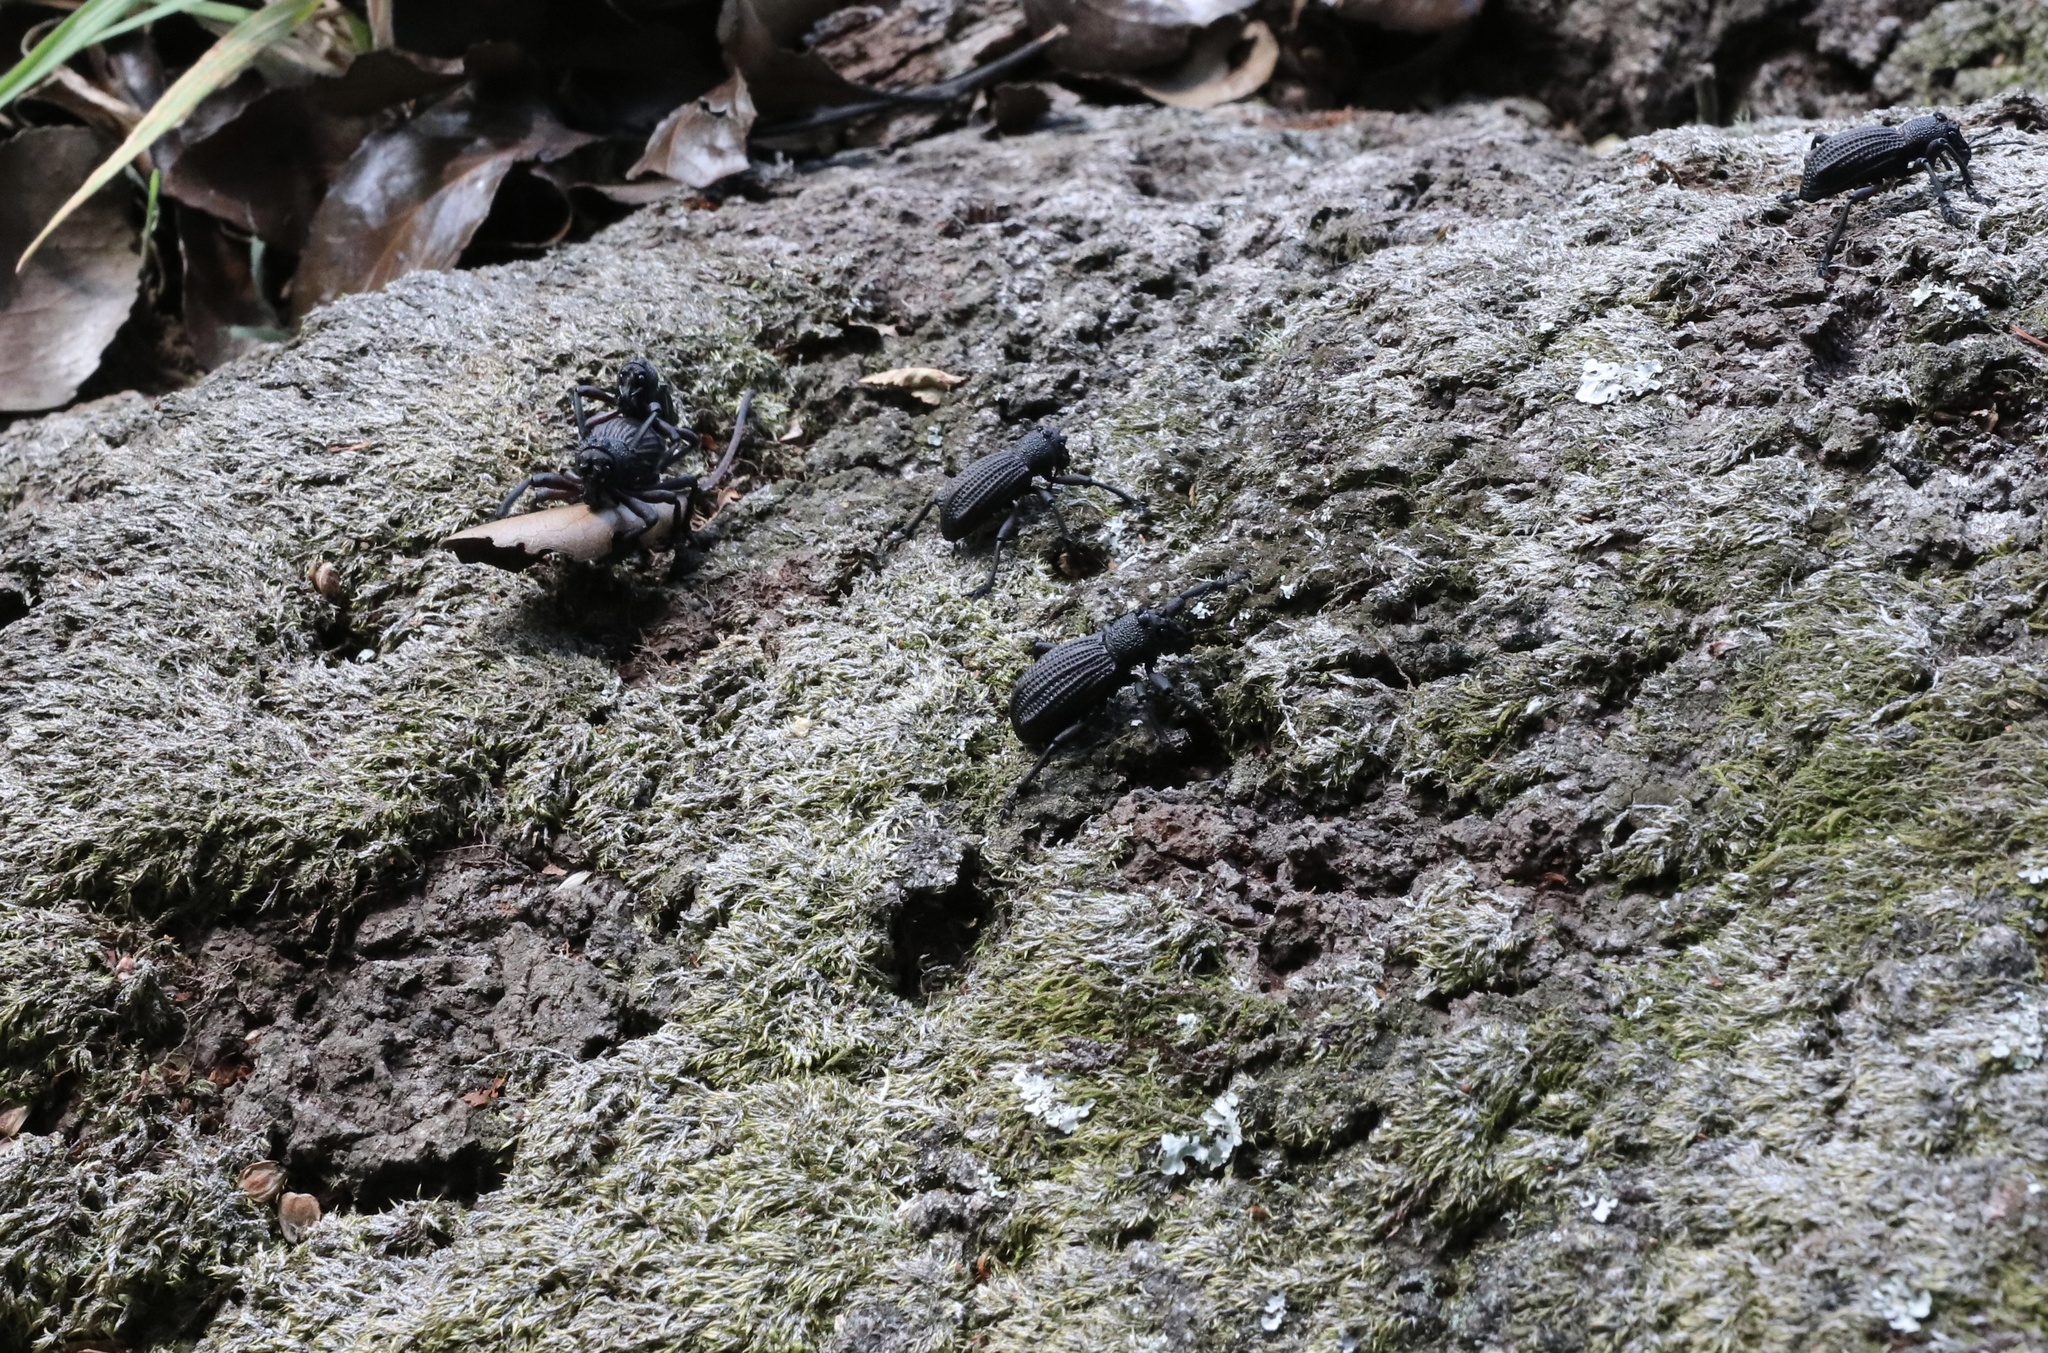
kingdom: Animalia
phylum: Arthropoda
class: Insecta
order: Coleoptera
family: Curculionidae
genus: Aegorhinus
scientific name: Aegorhinus
